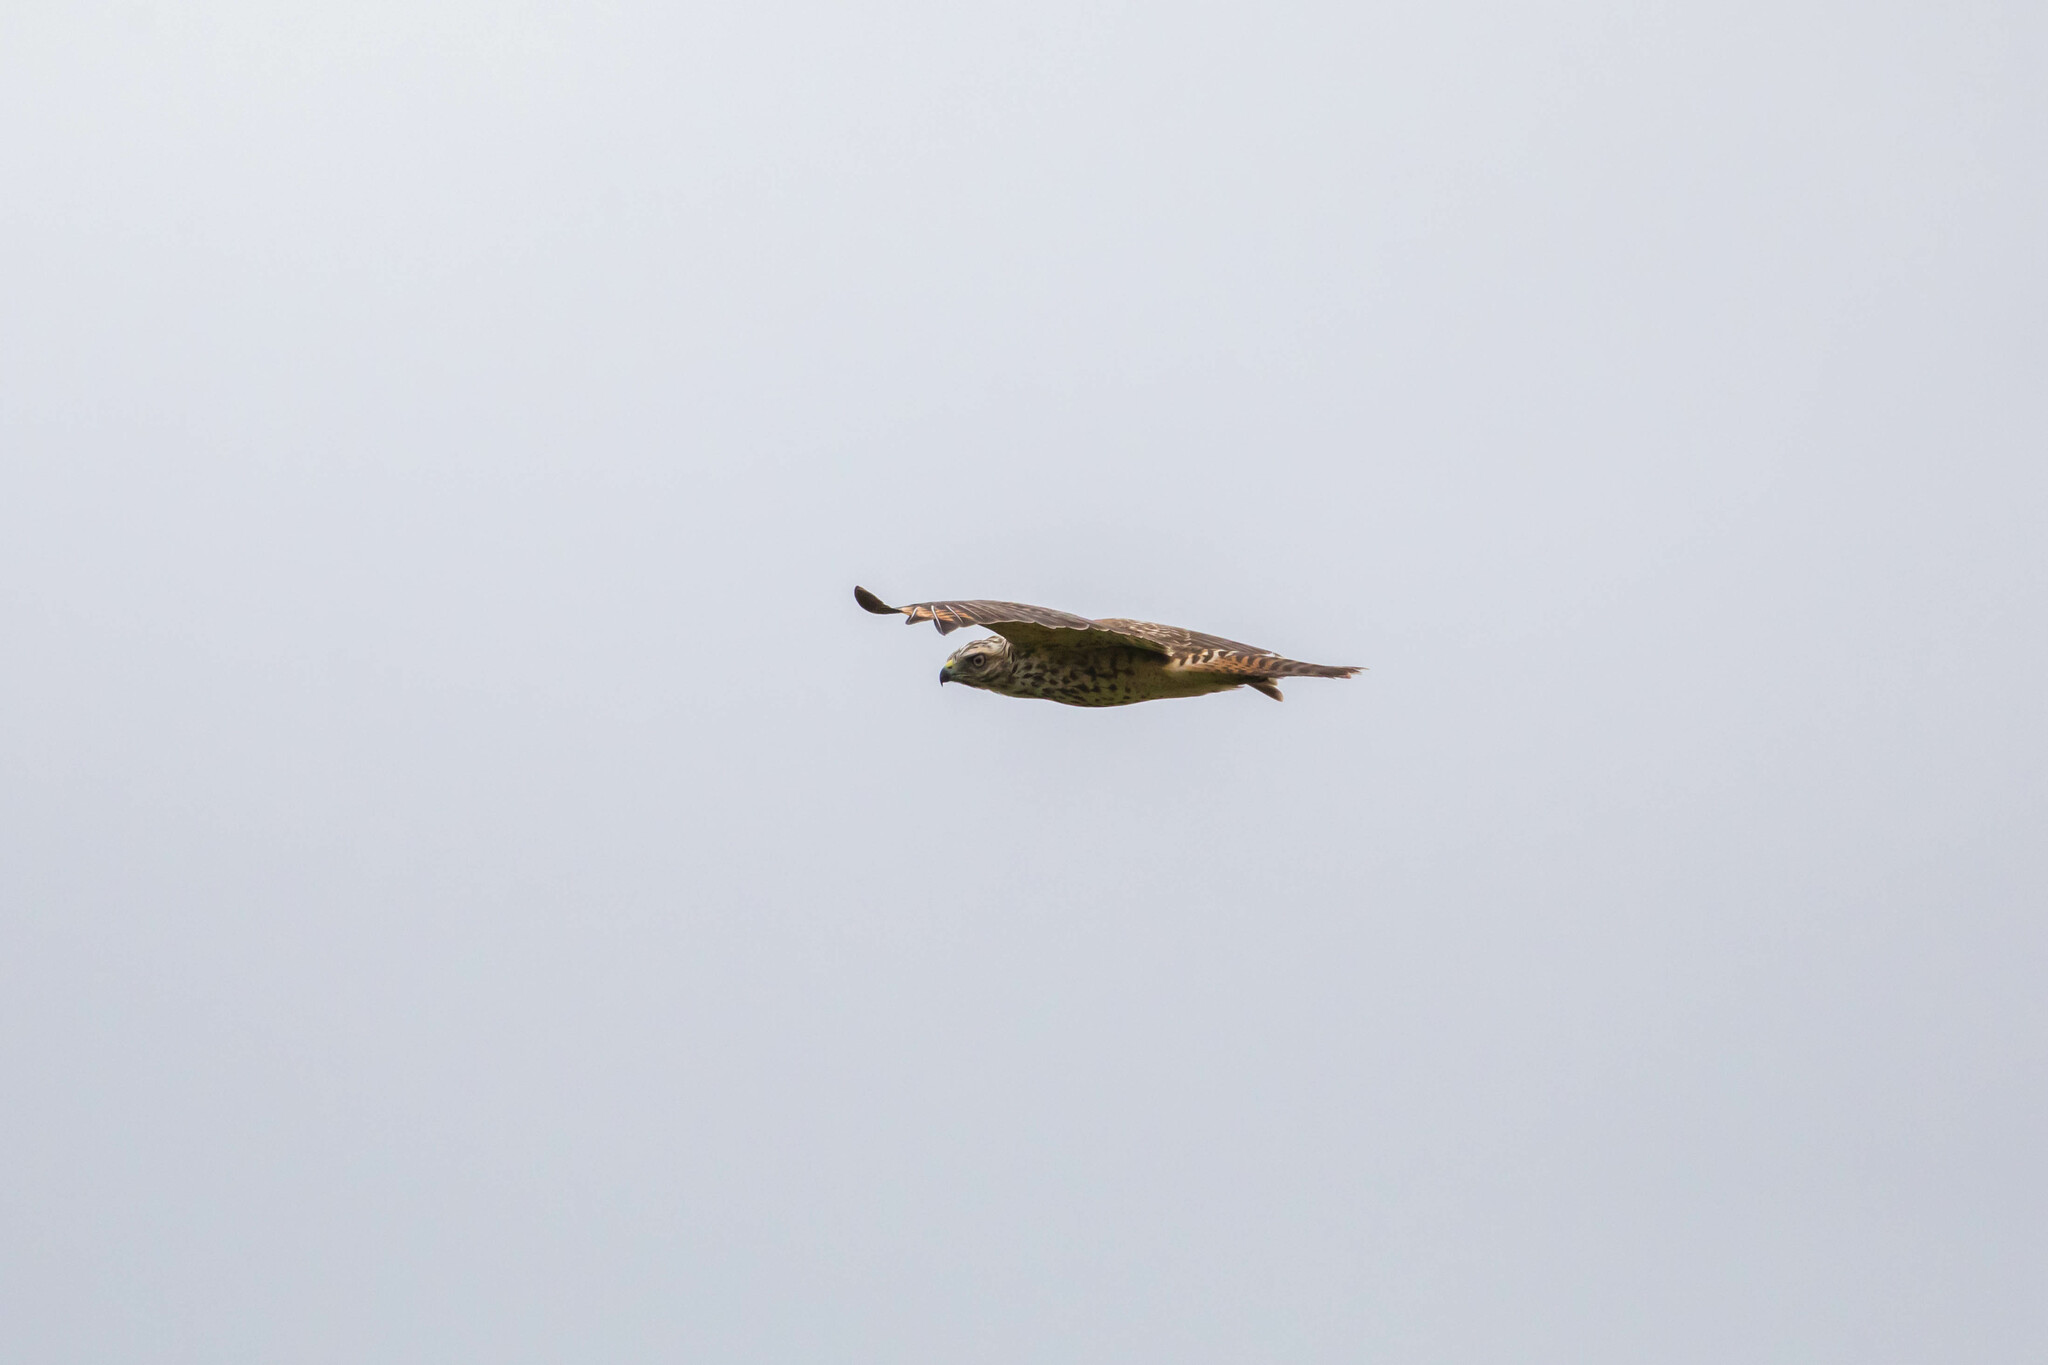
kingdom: Animalia
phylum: Chordata
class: Aves
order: Accipitriformes
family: Accipitridae
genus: Buteo
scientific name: Buteo lineatus
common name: Red-shouldered hawk
